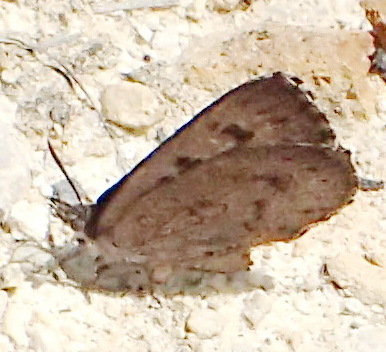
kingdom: Animalia
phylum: Arthropoda
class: Insecta
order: Lepidoptera
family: Lycaenidae
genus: Thestor
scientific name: Thestor murrayi
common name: Murray's skolly
